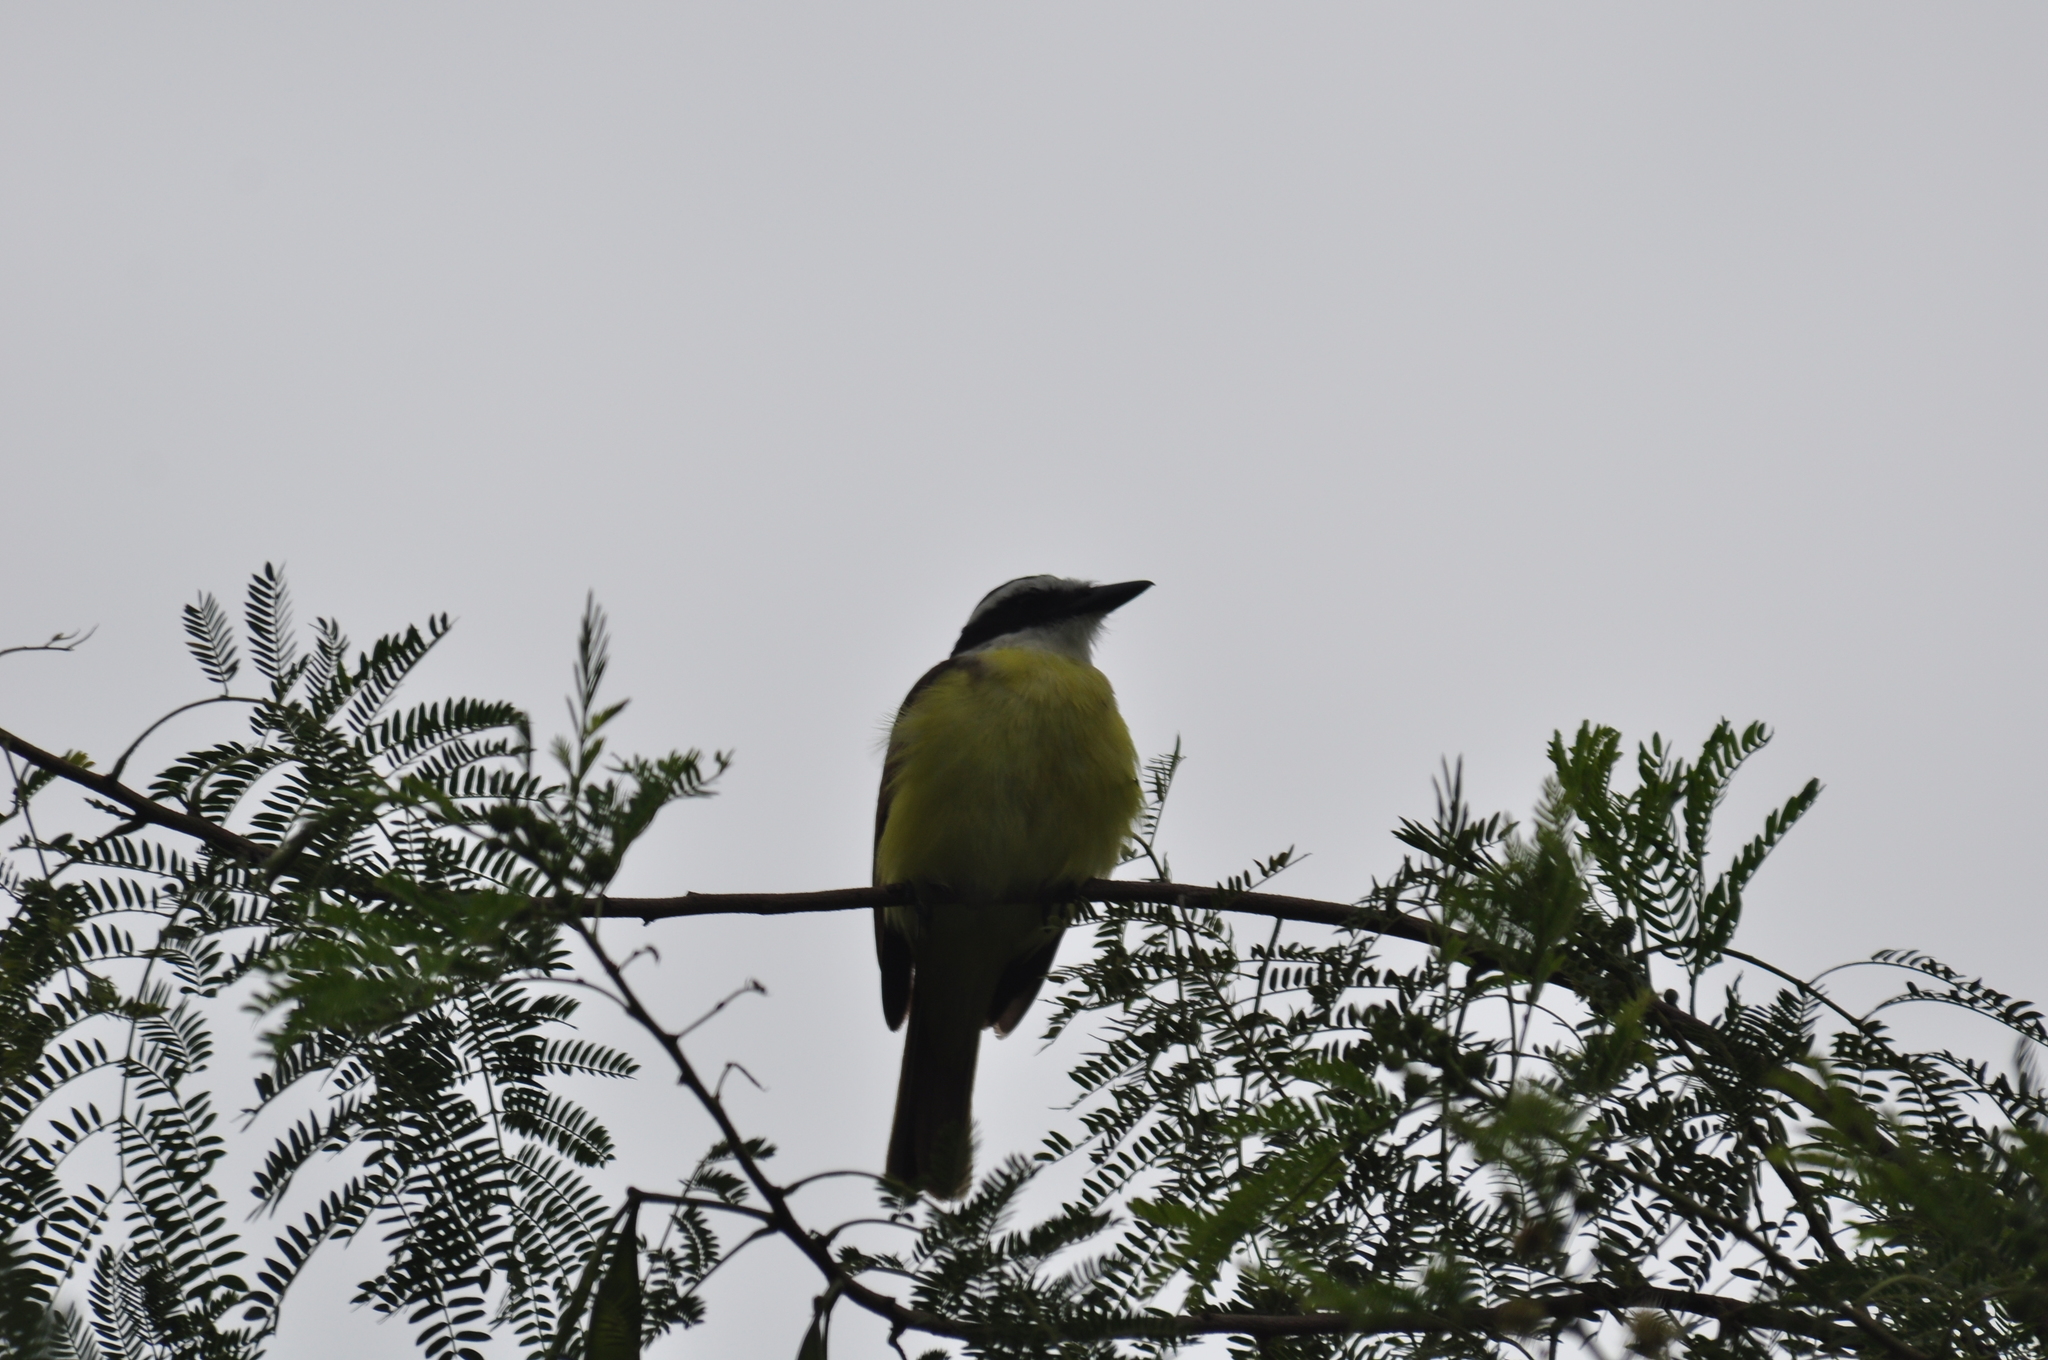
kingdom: Animalia
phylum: Chordata
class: Aves
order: Passeriformes
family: Tyrannidae
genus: Pitangus
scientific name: Pitangus sulphuratus
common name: Great kiskadee
